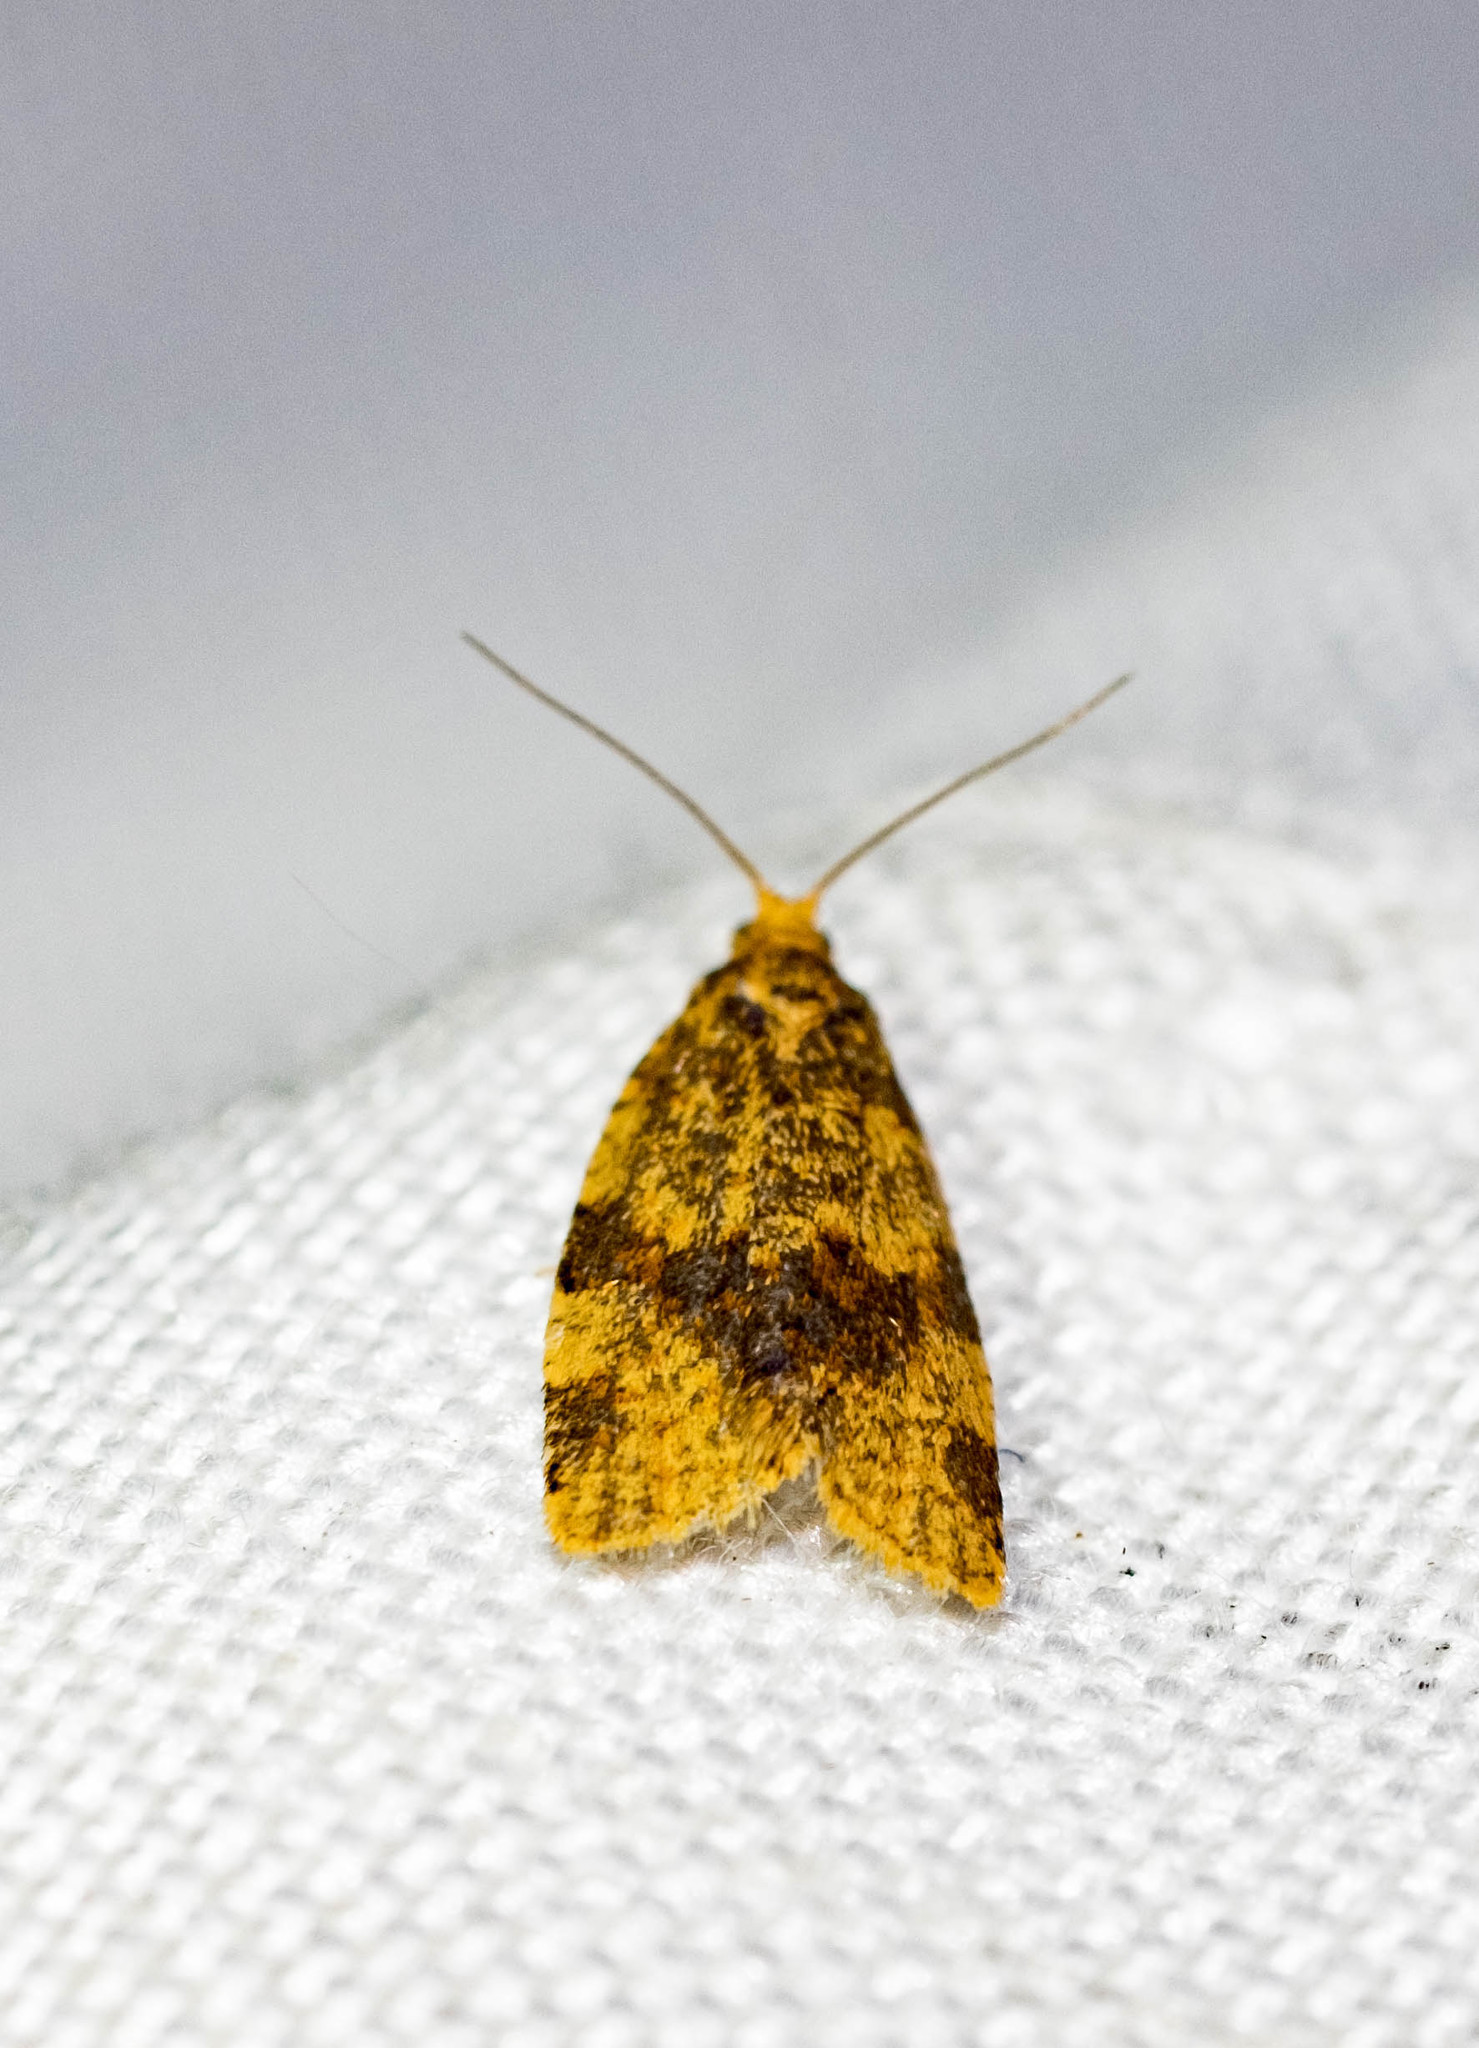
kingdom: Animalia
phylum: Arthropoda
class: Insecta
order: Lepidoptera
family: Tortricidae
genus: Epagoge
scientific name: Epagoge grotiana
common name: Brown-barred twist
